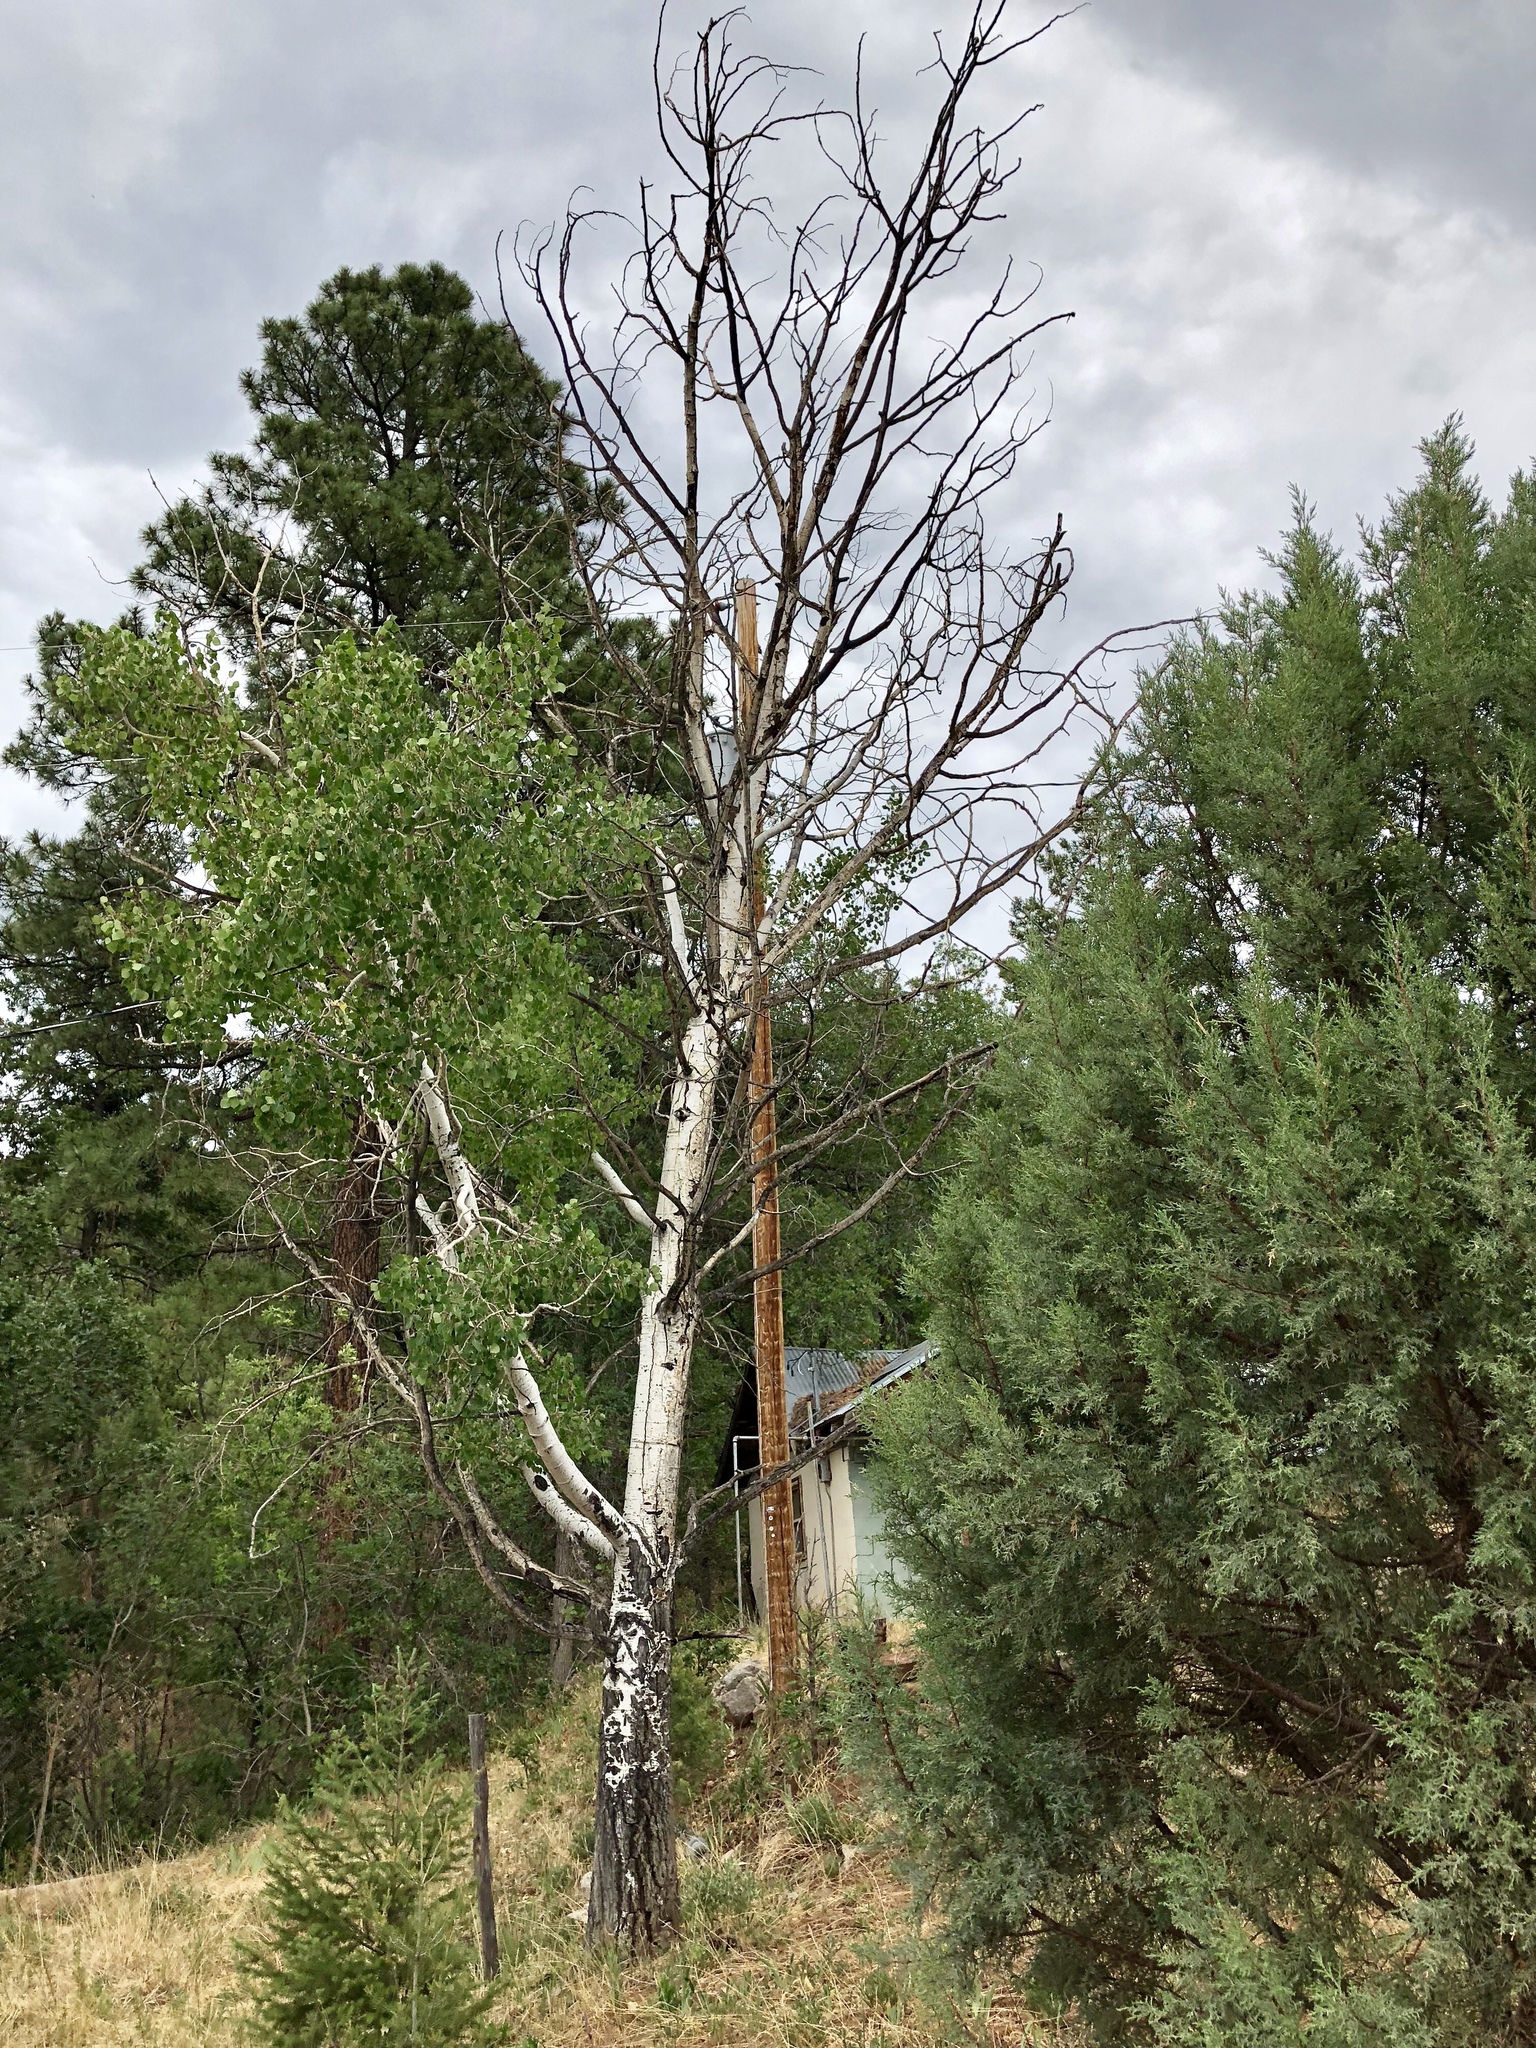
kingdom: Plantae
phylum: Tracheophyta
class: Magnoliopsida
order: Malpighiales
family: Salicaceae
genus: Populus
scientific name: Populus tremuloides
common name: Quaking aspen
